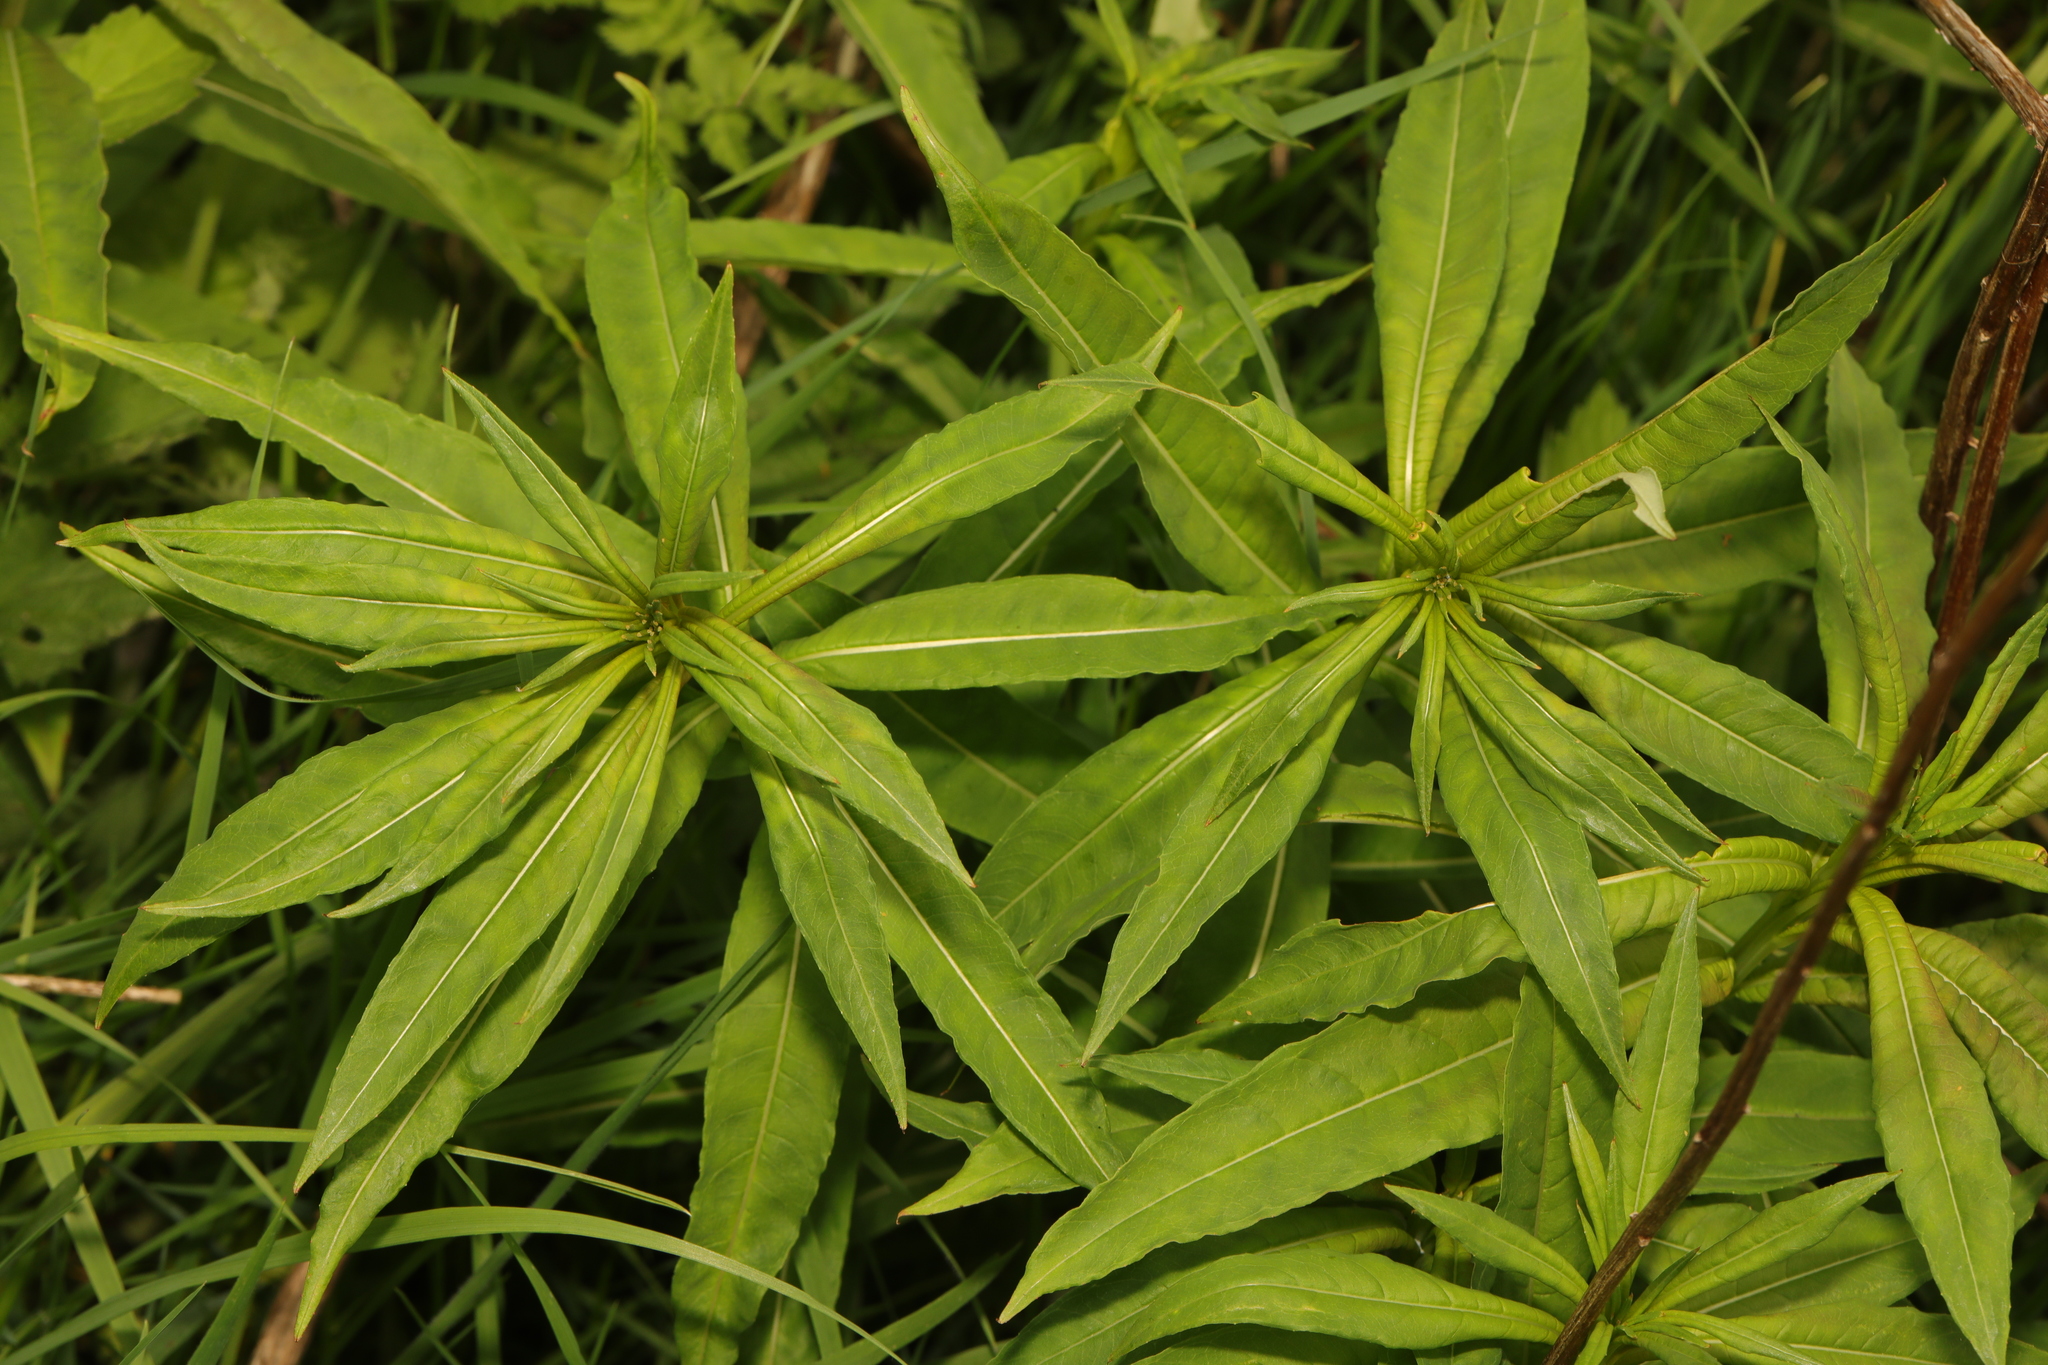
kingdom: Plantae
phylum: Tracheophyta
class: Magnoliopsida
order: Myrtales
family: Onagraceae
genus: Chamaenerion
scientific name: Chamaenerion angustifolium
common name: Fireweed
